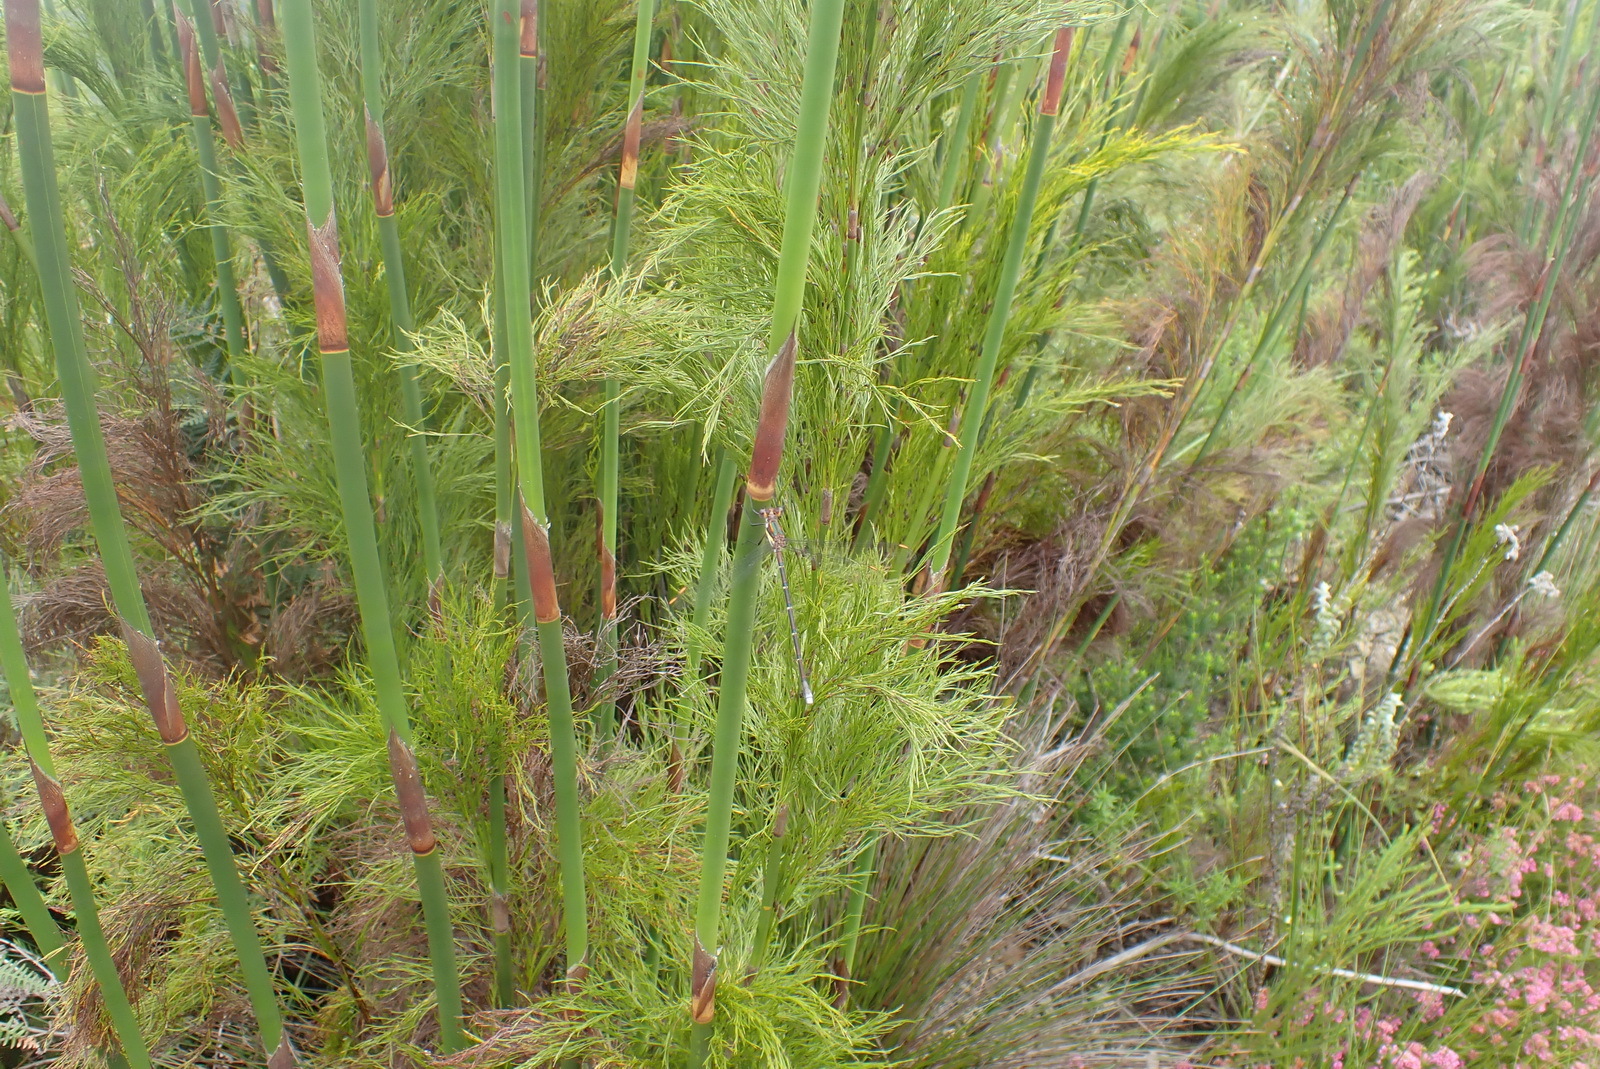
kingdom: Plantae
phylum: Tracheophyta
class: Liliopsida
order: Poales
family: Restionaceae
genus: Rhodocoma
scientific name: Rhodocoma gigantea
